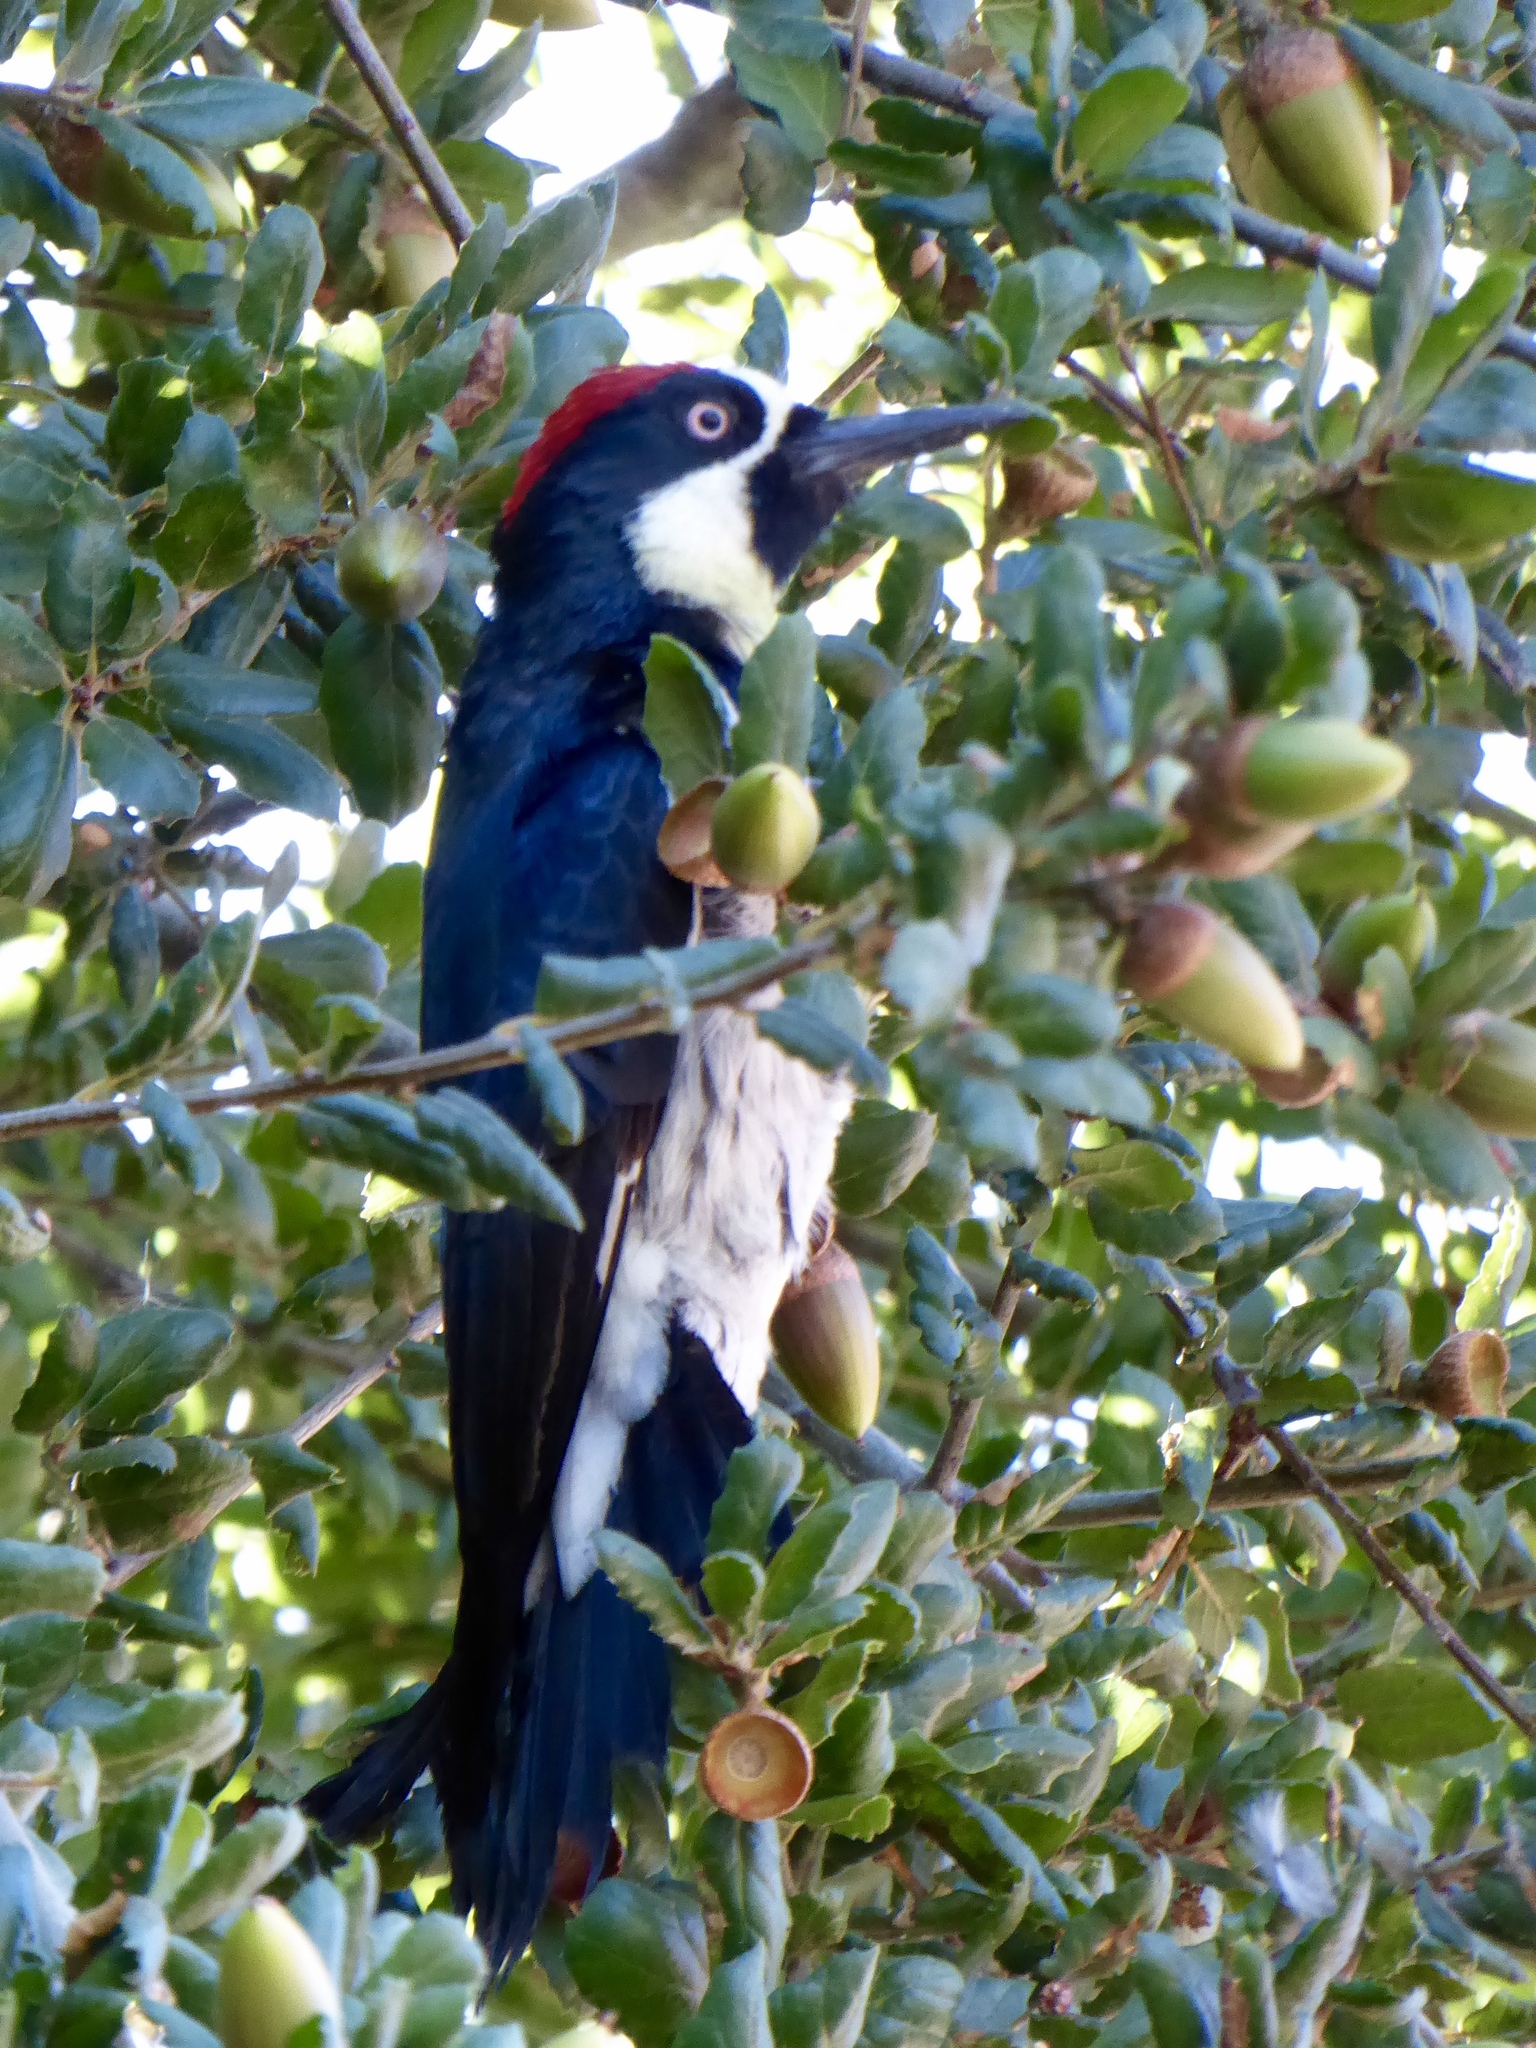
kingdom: Animalia
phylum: Chordata
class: Aves
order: Piciformes
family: Picidae
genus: Melanerpes
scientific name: Melanerpes formicivorus
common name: Acorn woodpecker
